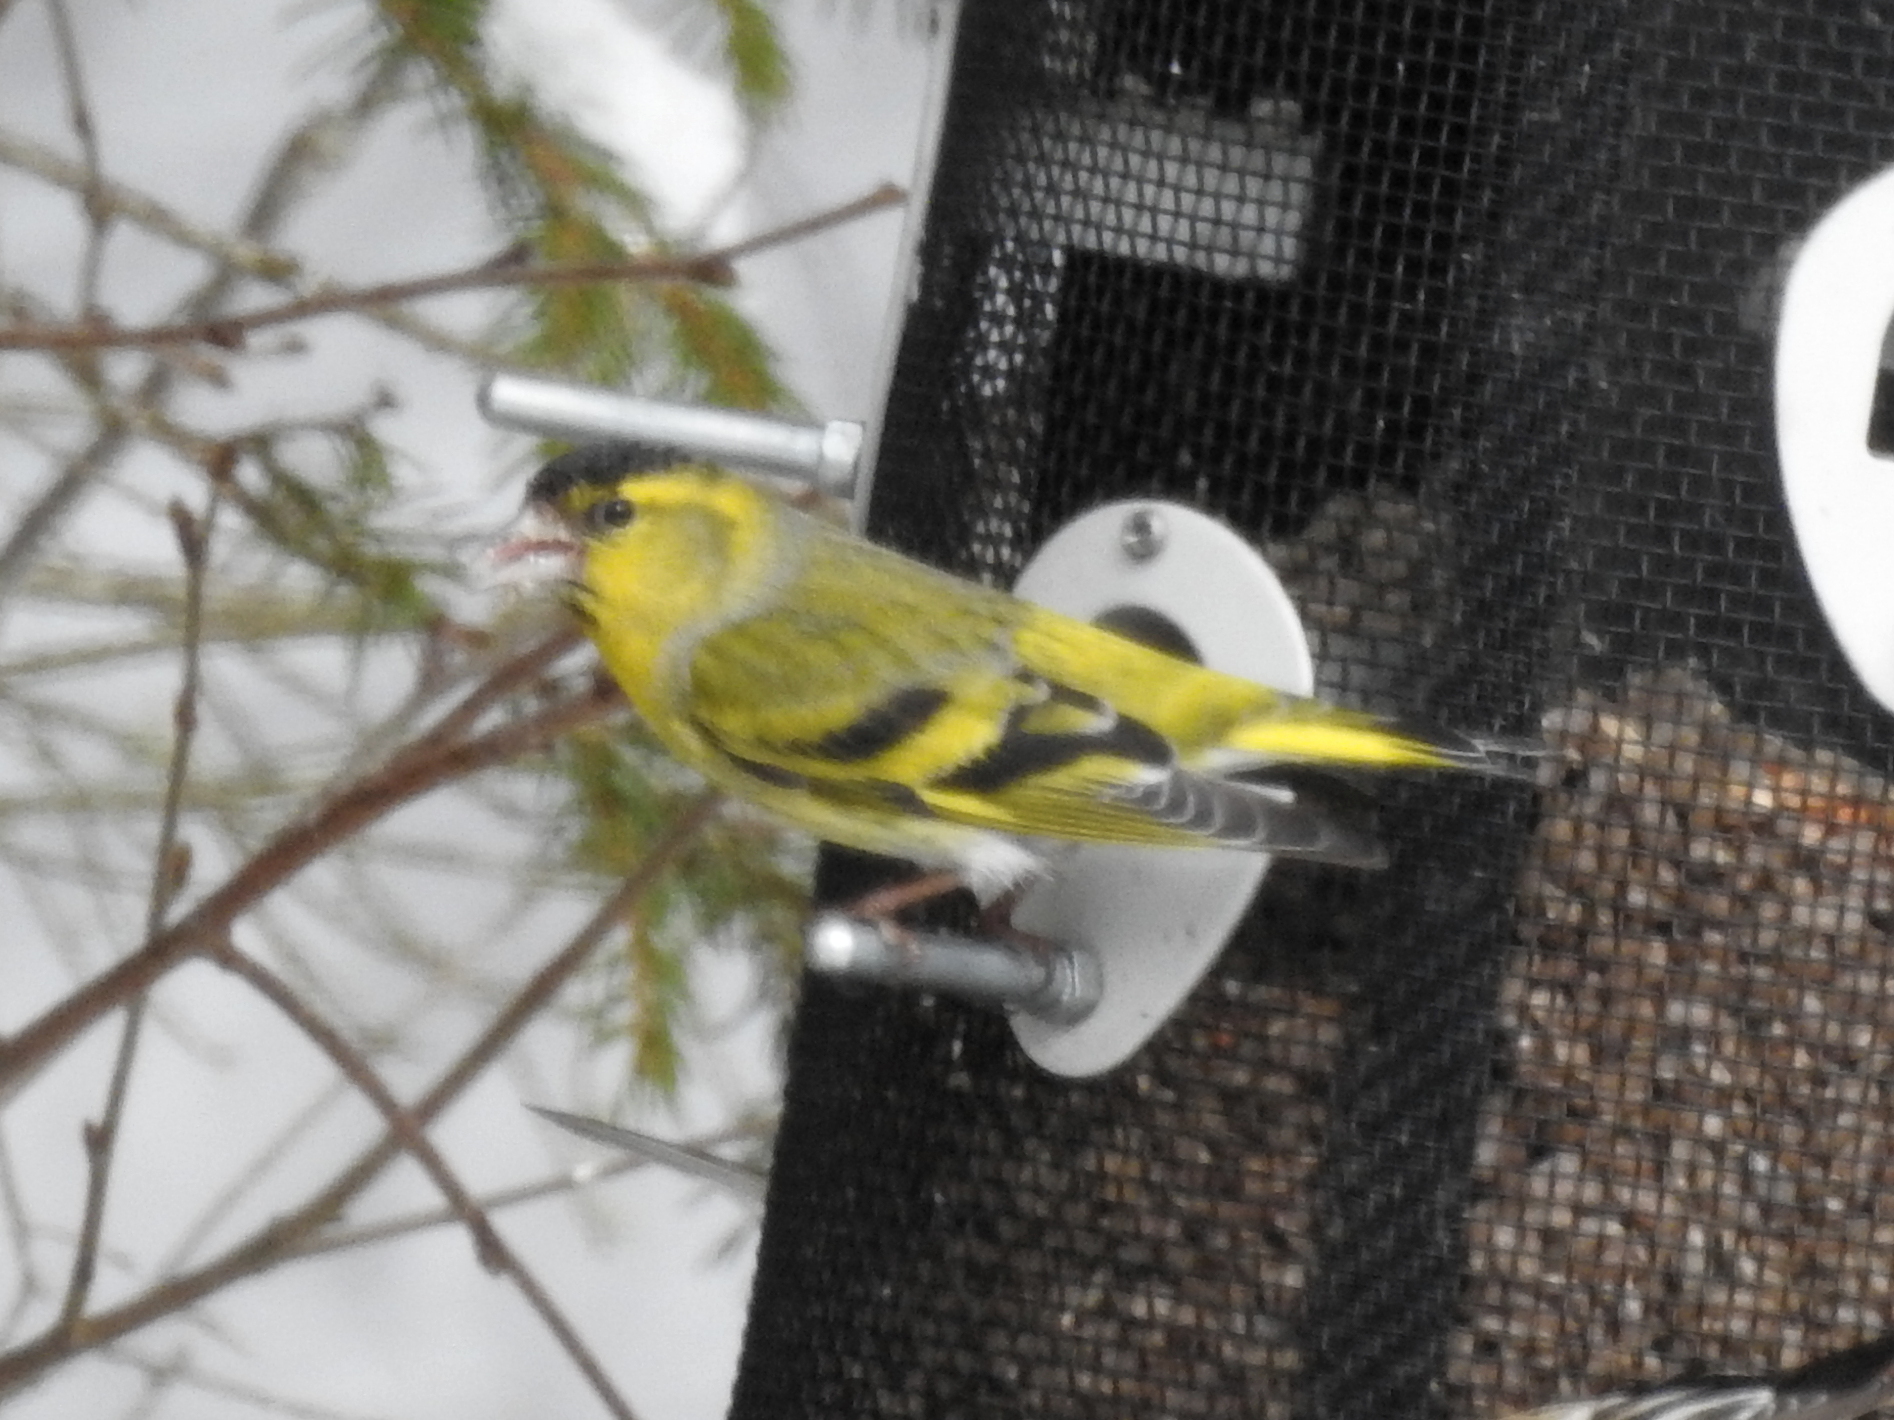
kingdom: Animalia
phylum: Chordata
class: Aves
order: Passeriformes
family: Fringillidae
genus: Spinus
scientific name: Spinus spinus
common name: Eurasian siskin
